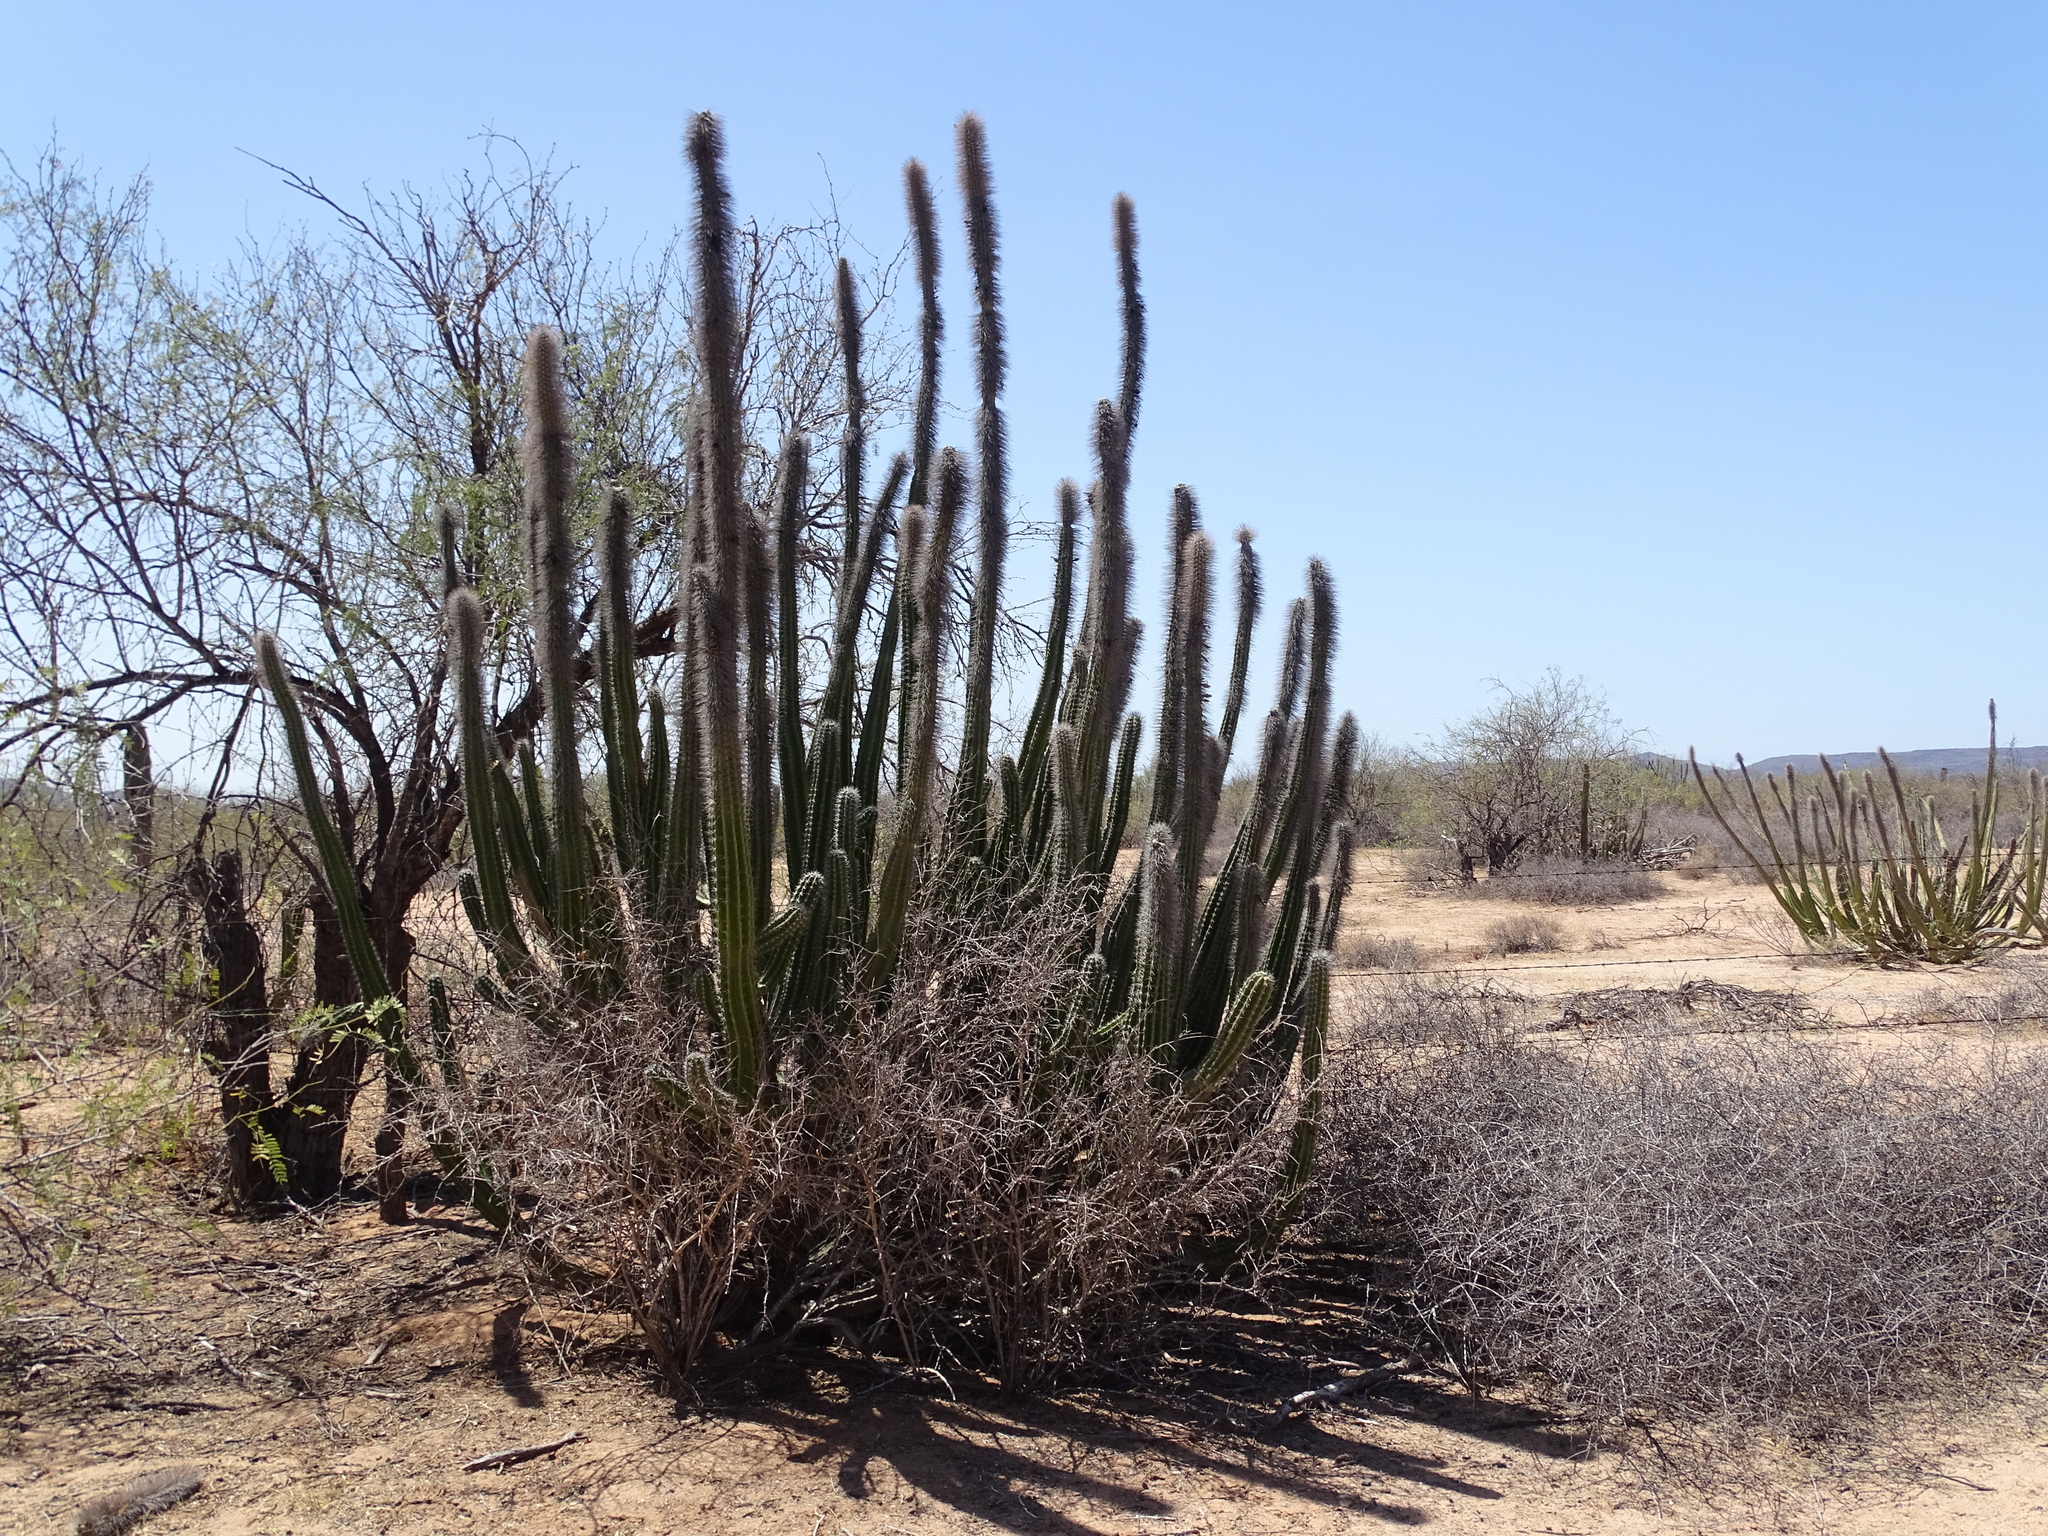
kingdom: Plantae
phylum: Tracheophyta
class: Magnoliopsida
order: Caryophyllales
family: Cactaceae
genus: Pachycereus
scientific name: Pachycereus schottii
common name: Senita cactus
